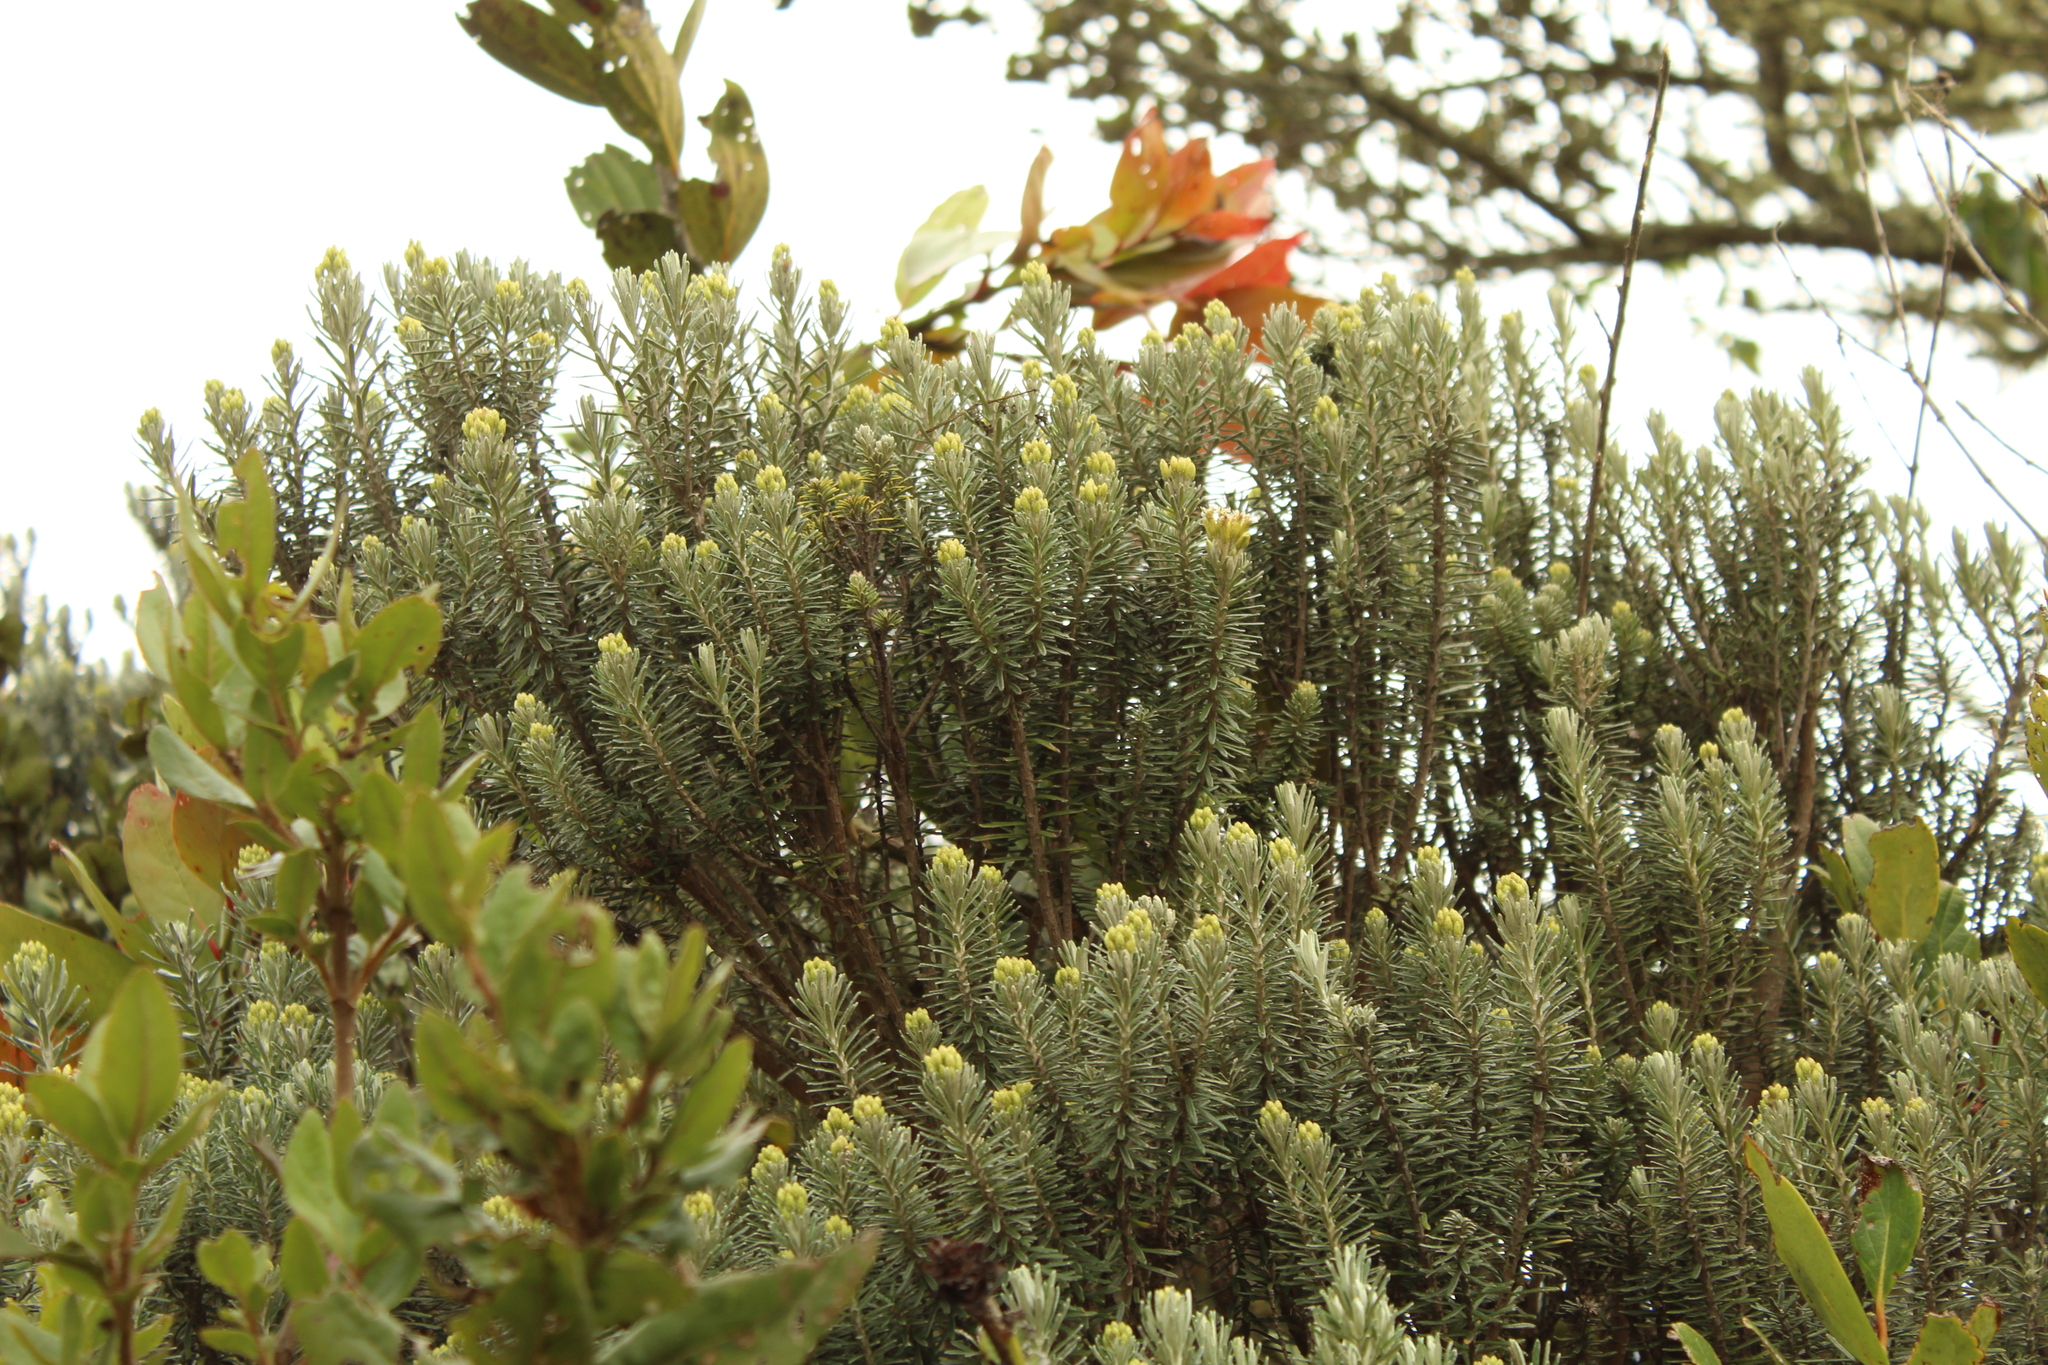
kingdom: Plantae
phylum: Tracheophyta
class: Magnoliopsida
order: Asterales
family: Asteraceae
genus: Linochilus
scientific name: Linochilus rosmarinifolius
